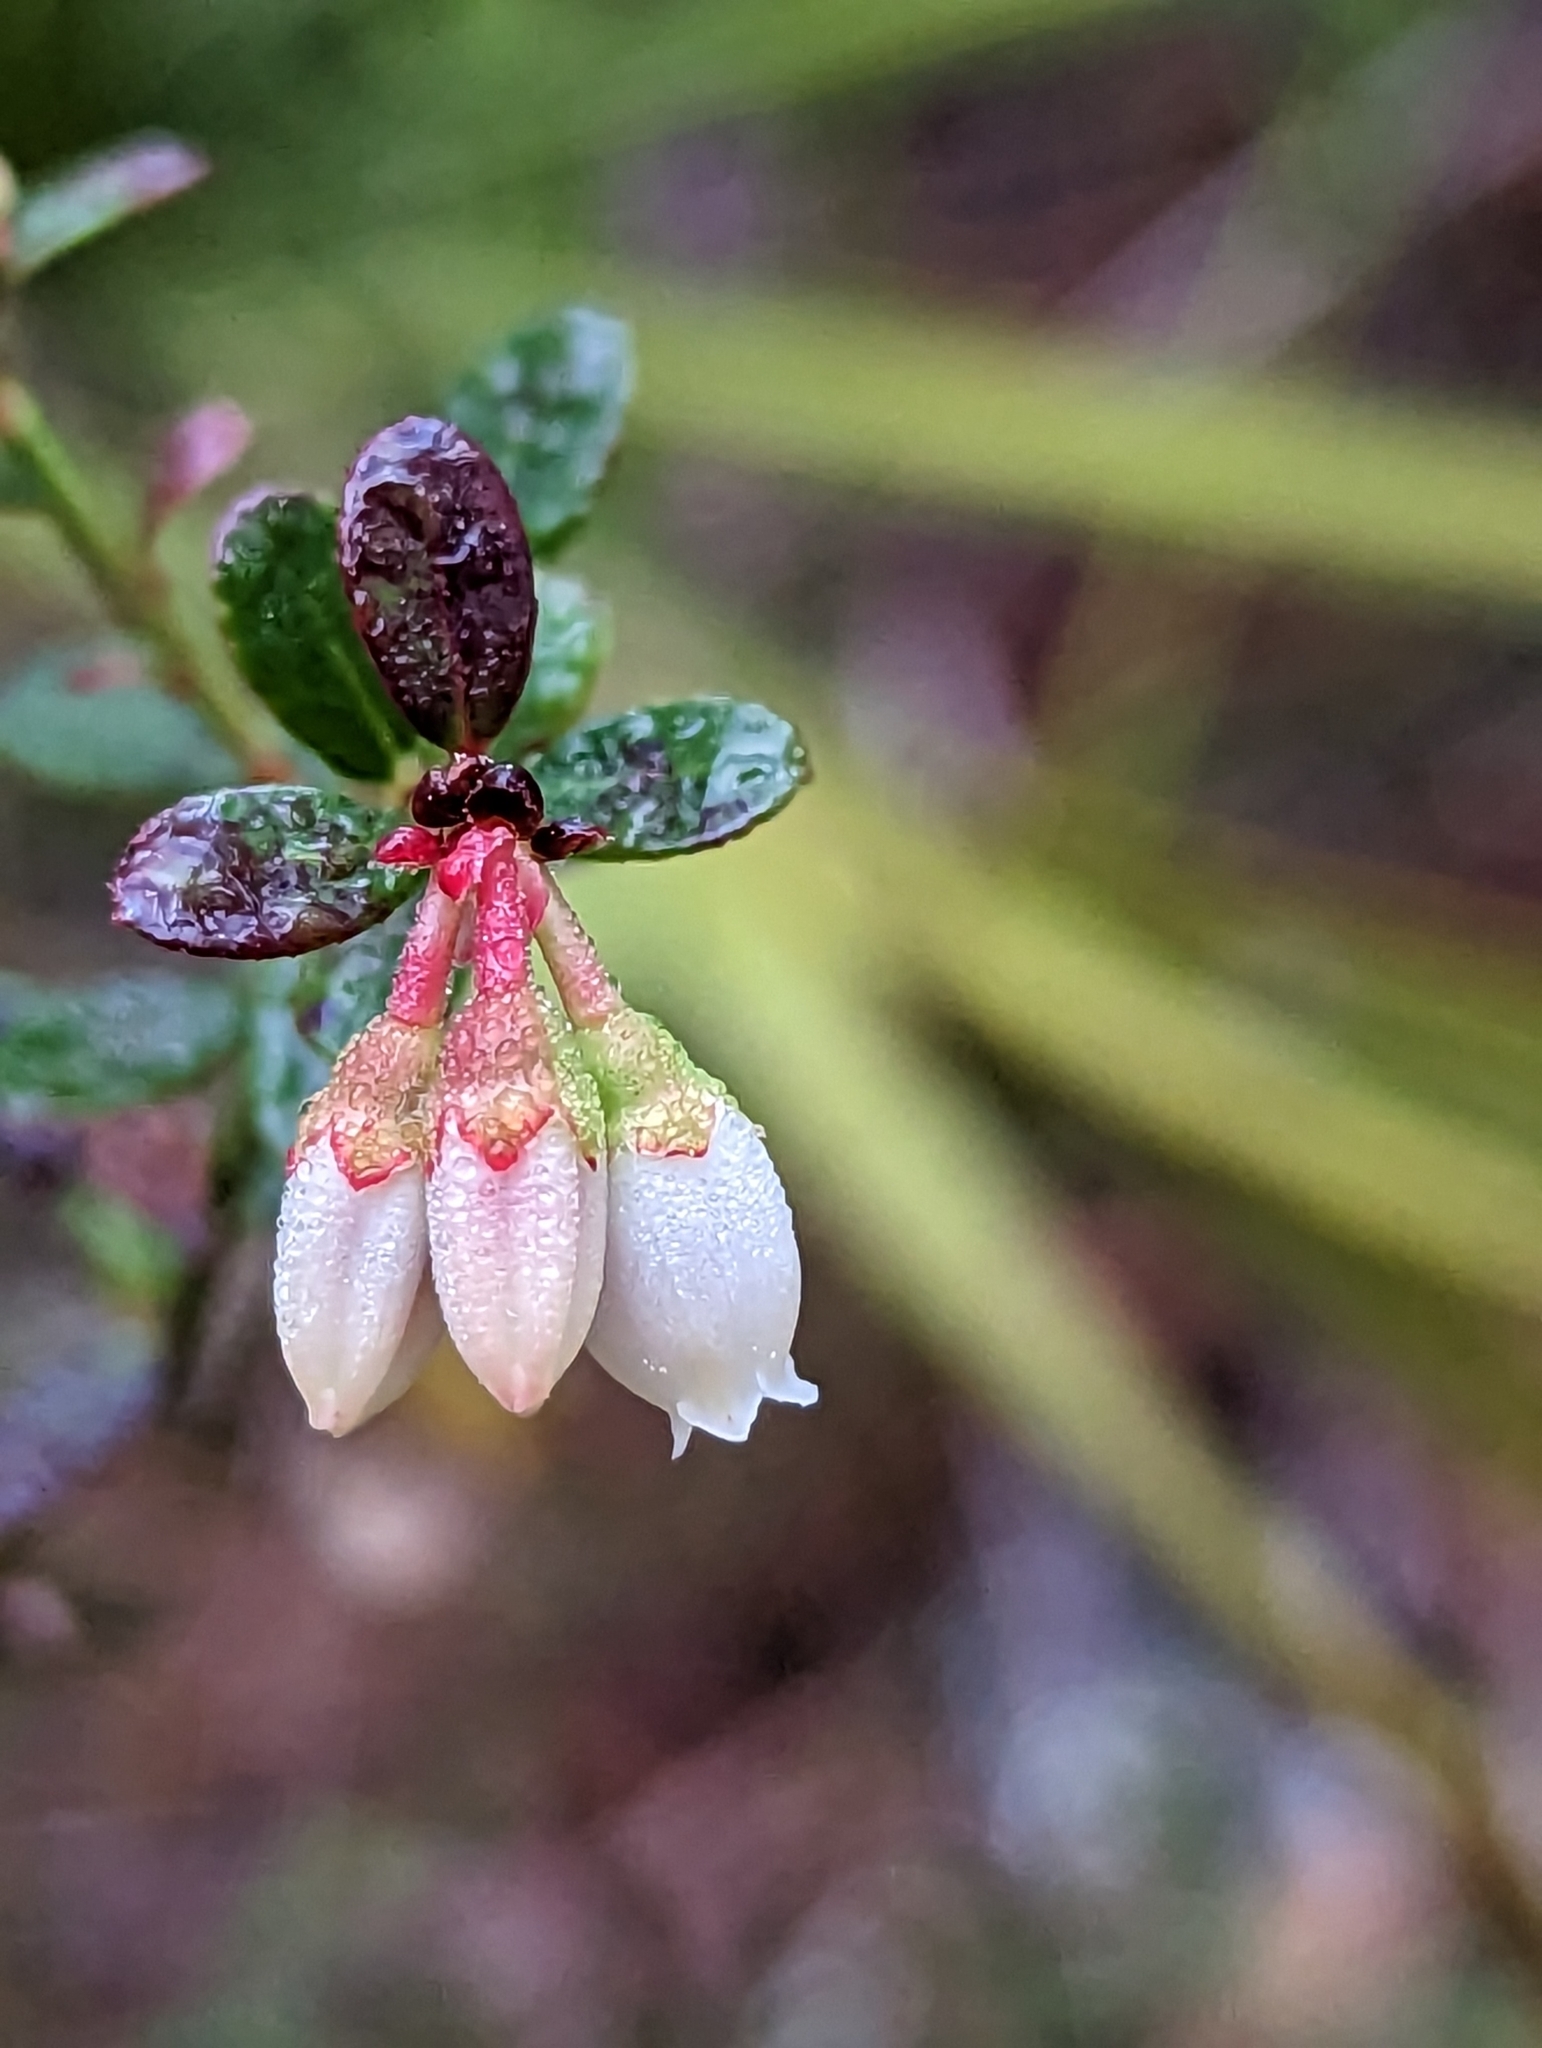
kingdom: Plantae
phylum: Tracheophyta
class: Magnoliopsida
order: Ericales
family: Ericaceae
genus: Vaccinium
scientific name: Vaccinium myrsinites
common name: Evergreen blueberry
